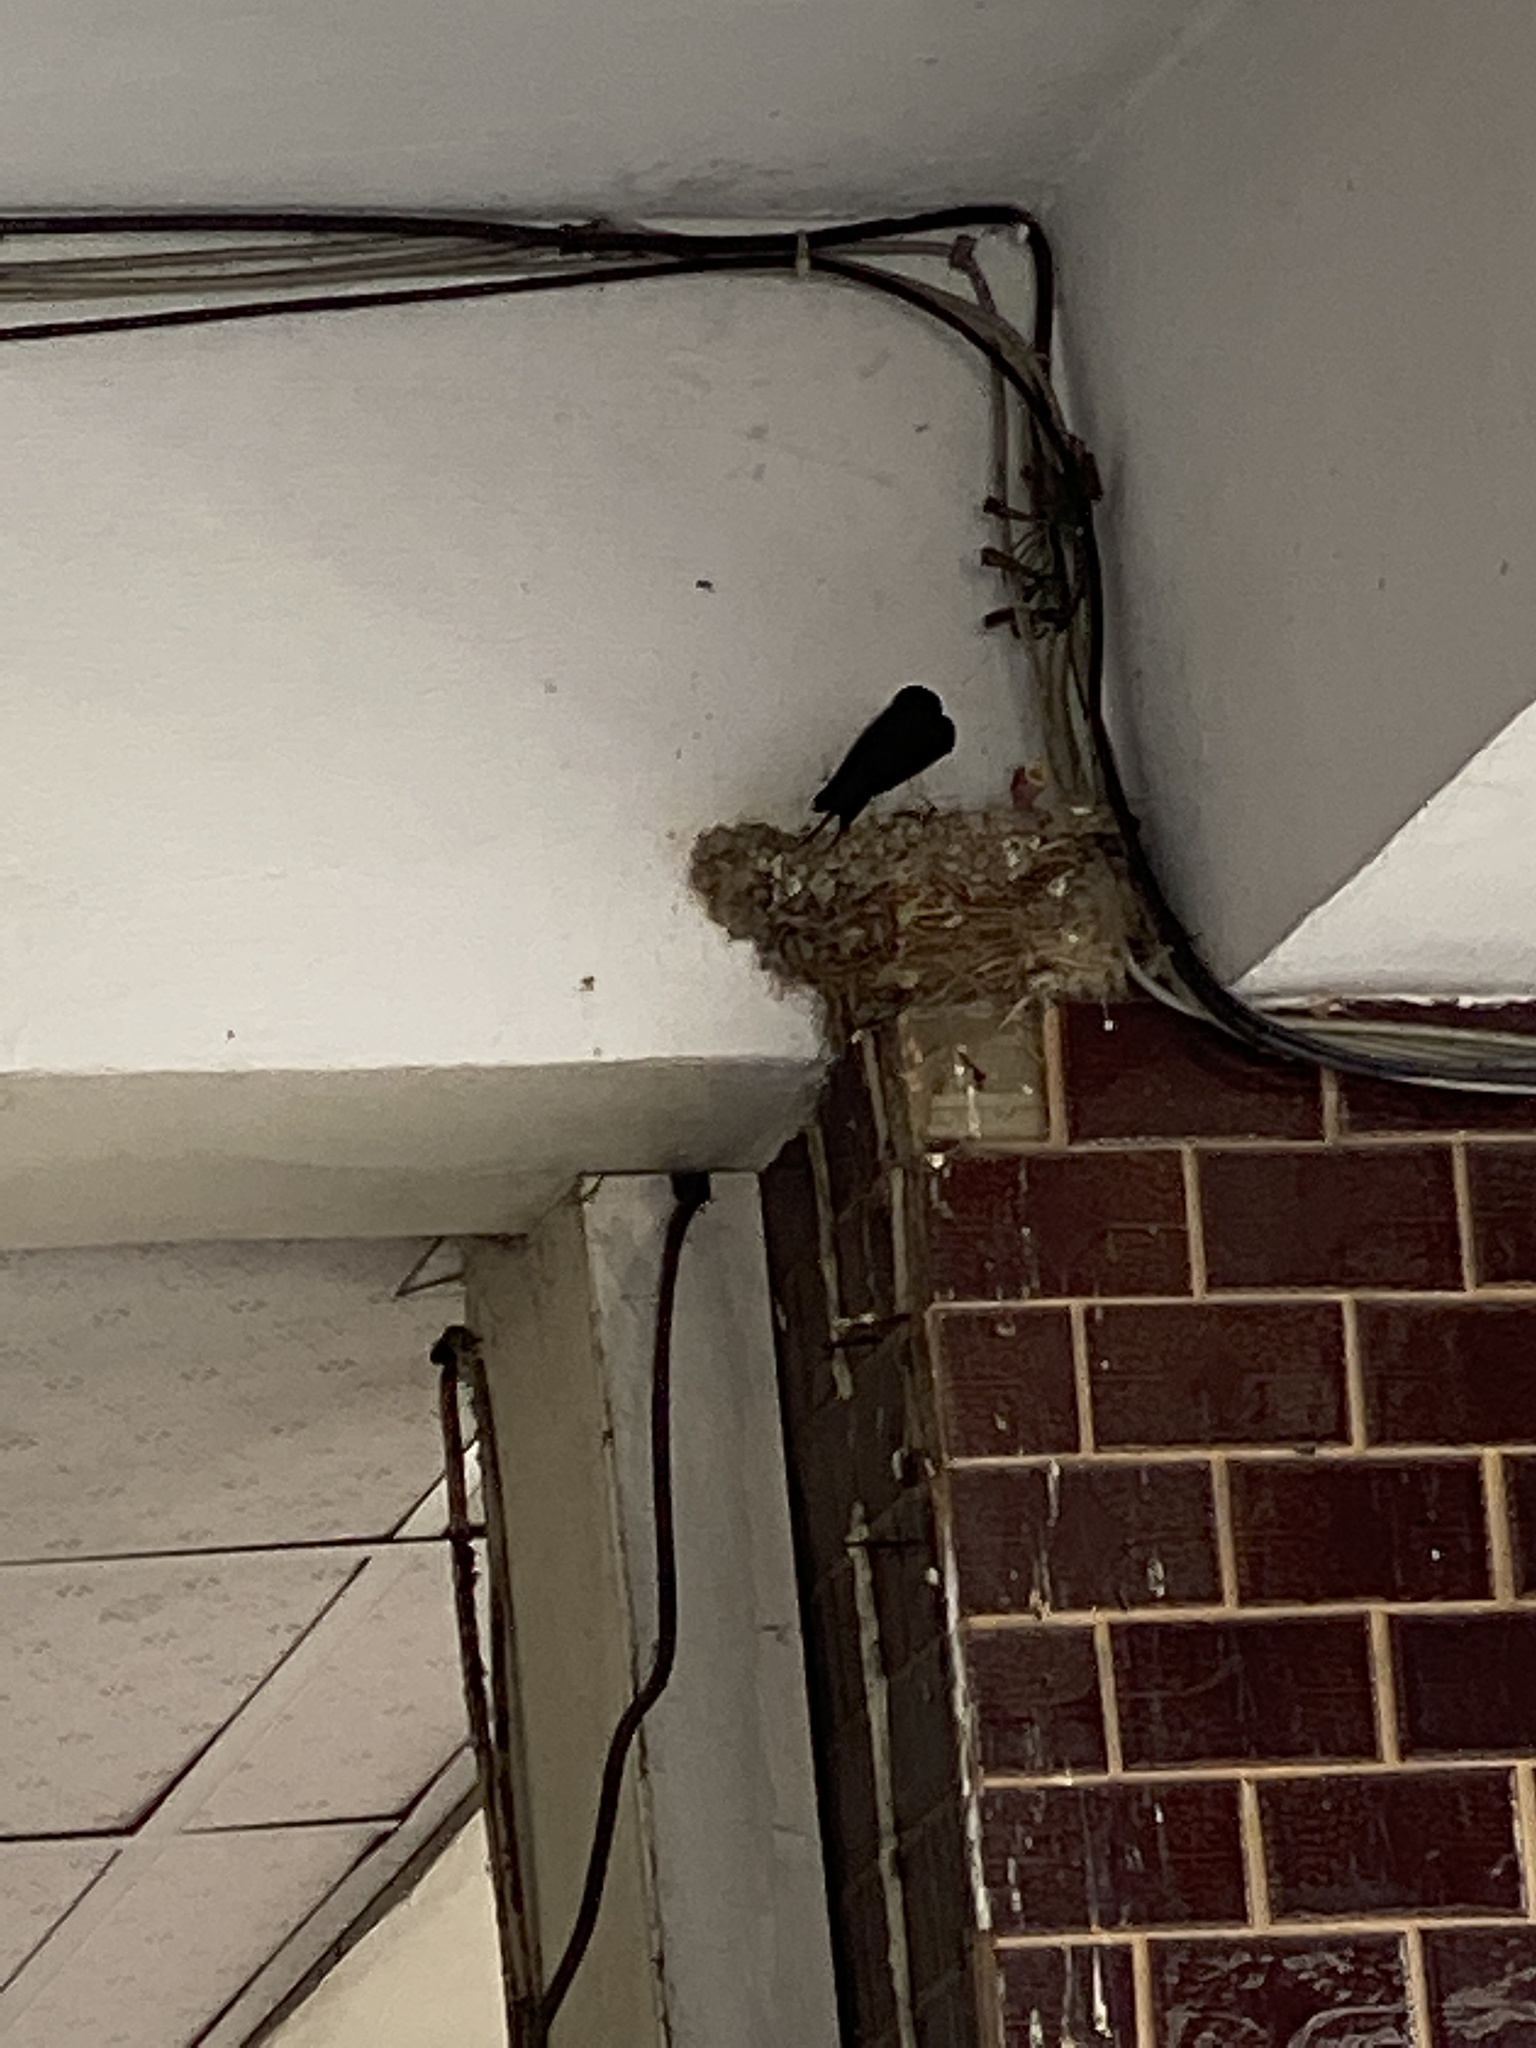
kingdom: Animalia
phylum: Chordata
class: Aves
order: Passeriformes
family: Hirundinidae
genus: Hirundo
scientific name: Hirundo rustica
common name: Barn swallow
